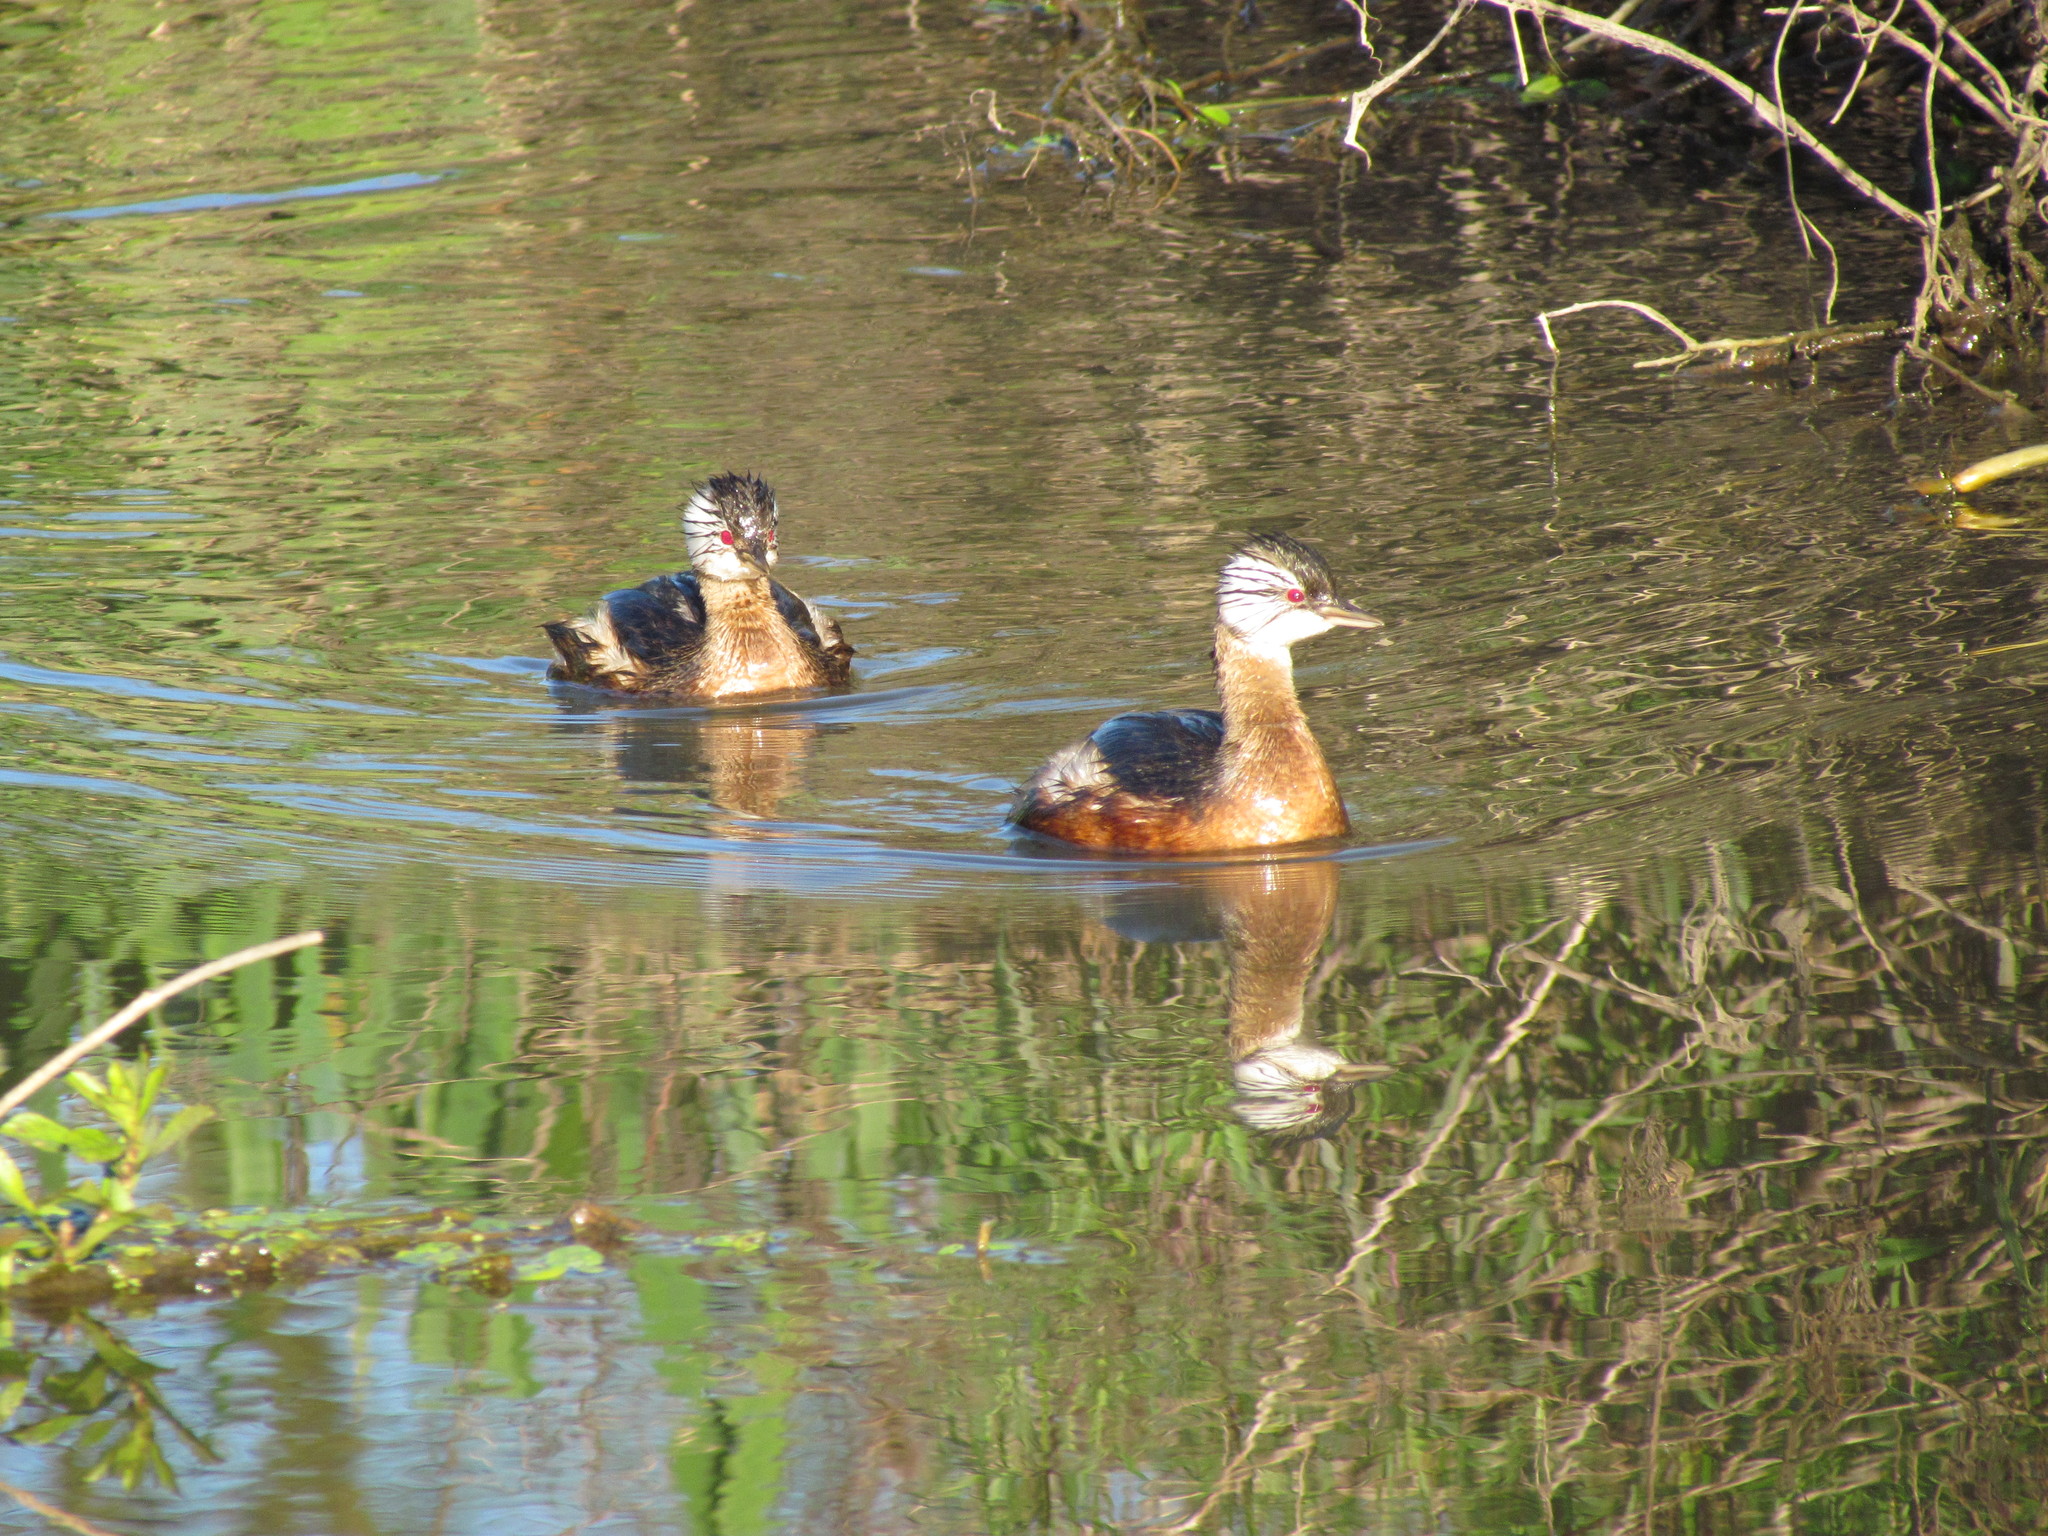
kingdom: Animalia
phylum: Chordata
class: Aves
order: Podicipediformes
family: Podicipedidae
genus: Rollandia
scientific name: Rollandia rolland
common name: White-tufted grebe
